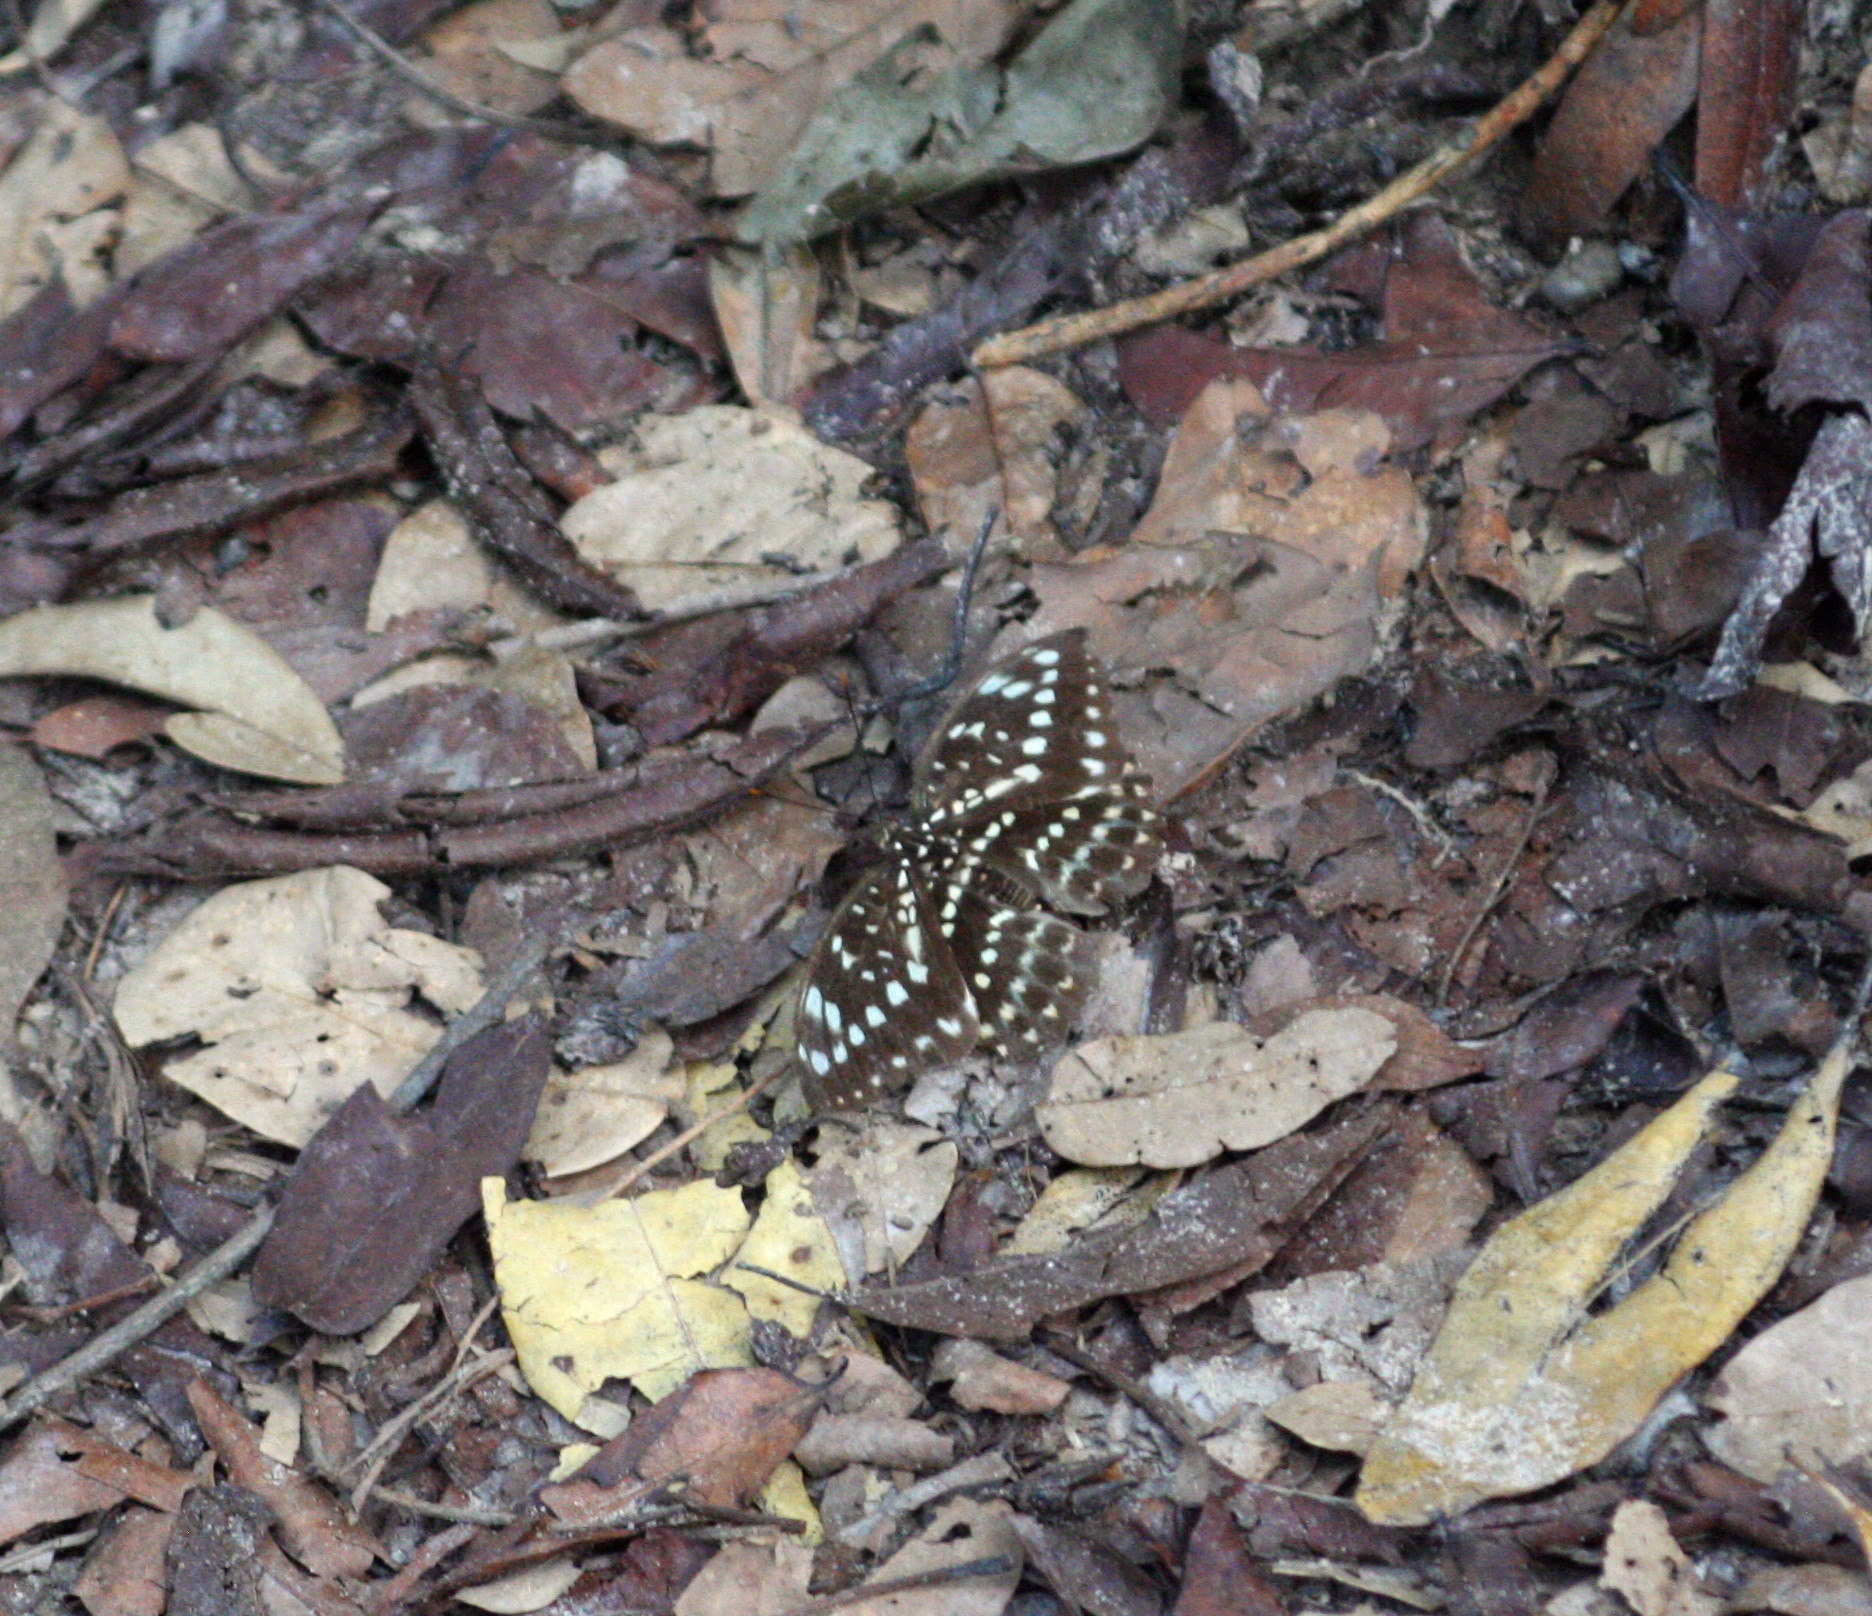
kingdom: Animalia
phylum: Arthropoda
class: Insecta
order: Lepidoptera
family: Nymphalidae
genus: Lexias
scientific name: Lexias pardalis
